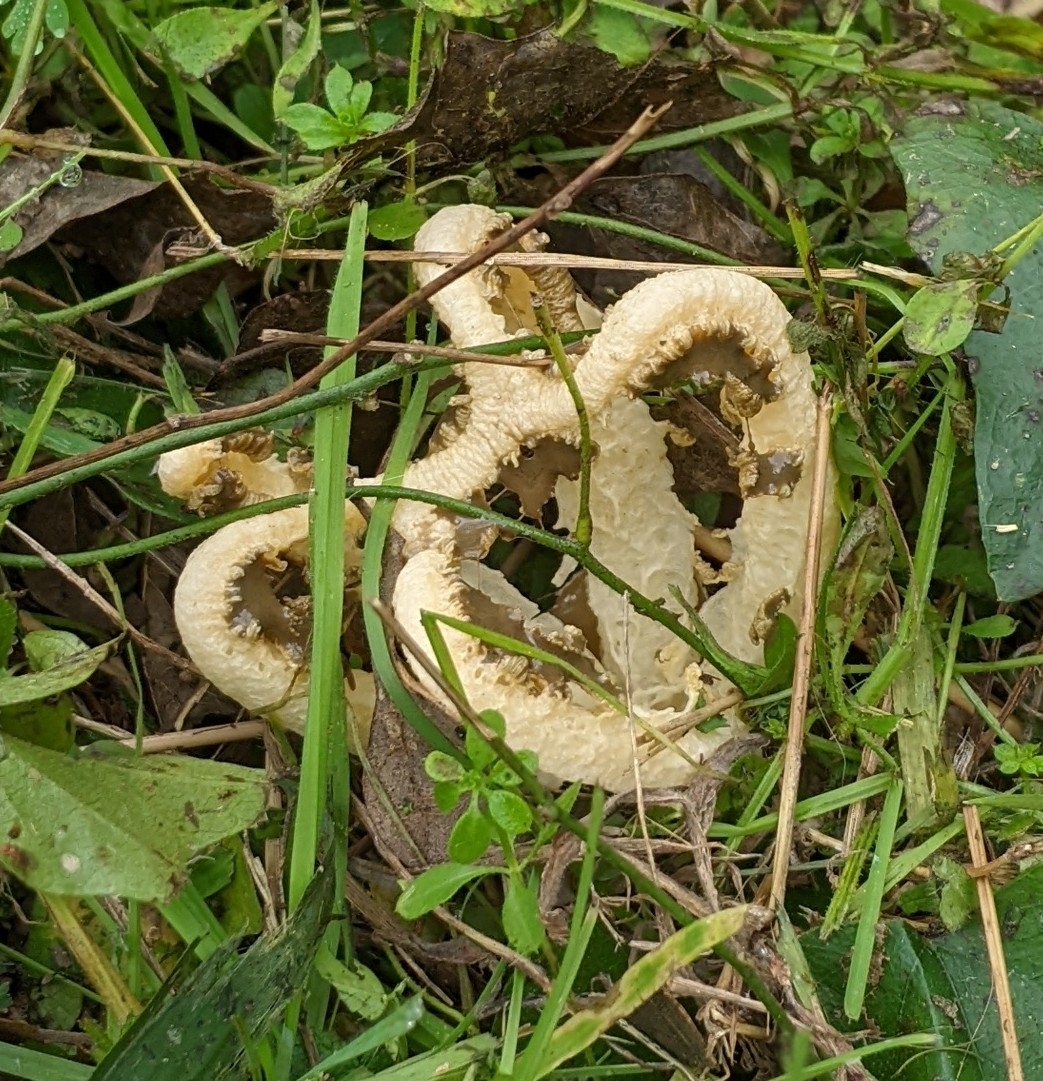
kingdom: Fungi
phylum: Basidiomycota
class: Agaricomycetes
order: Phallales
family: Phallaceae
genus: Blumenavia
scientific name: Blumenavia rhacodes
